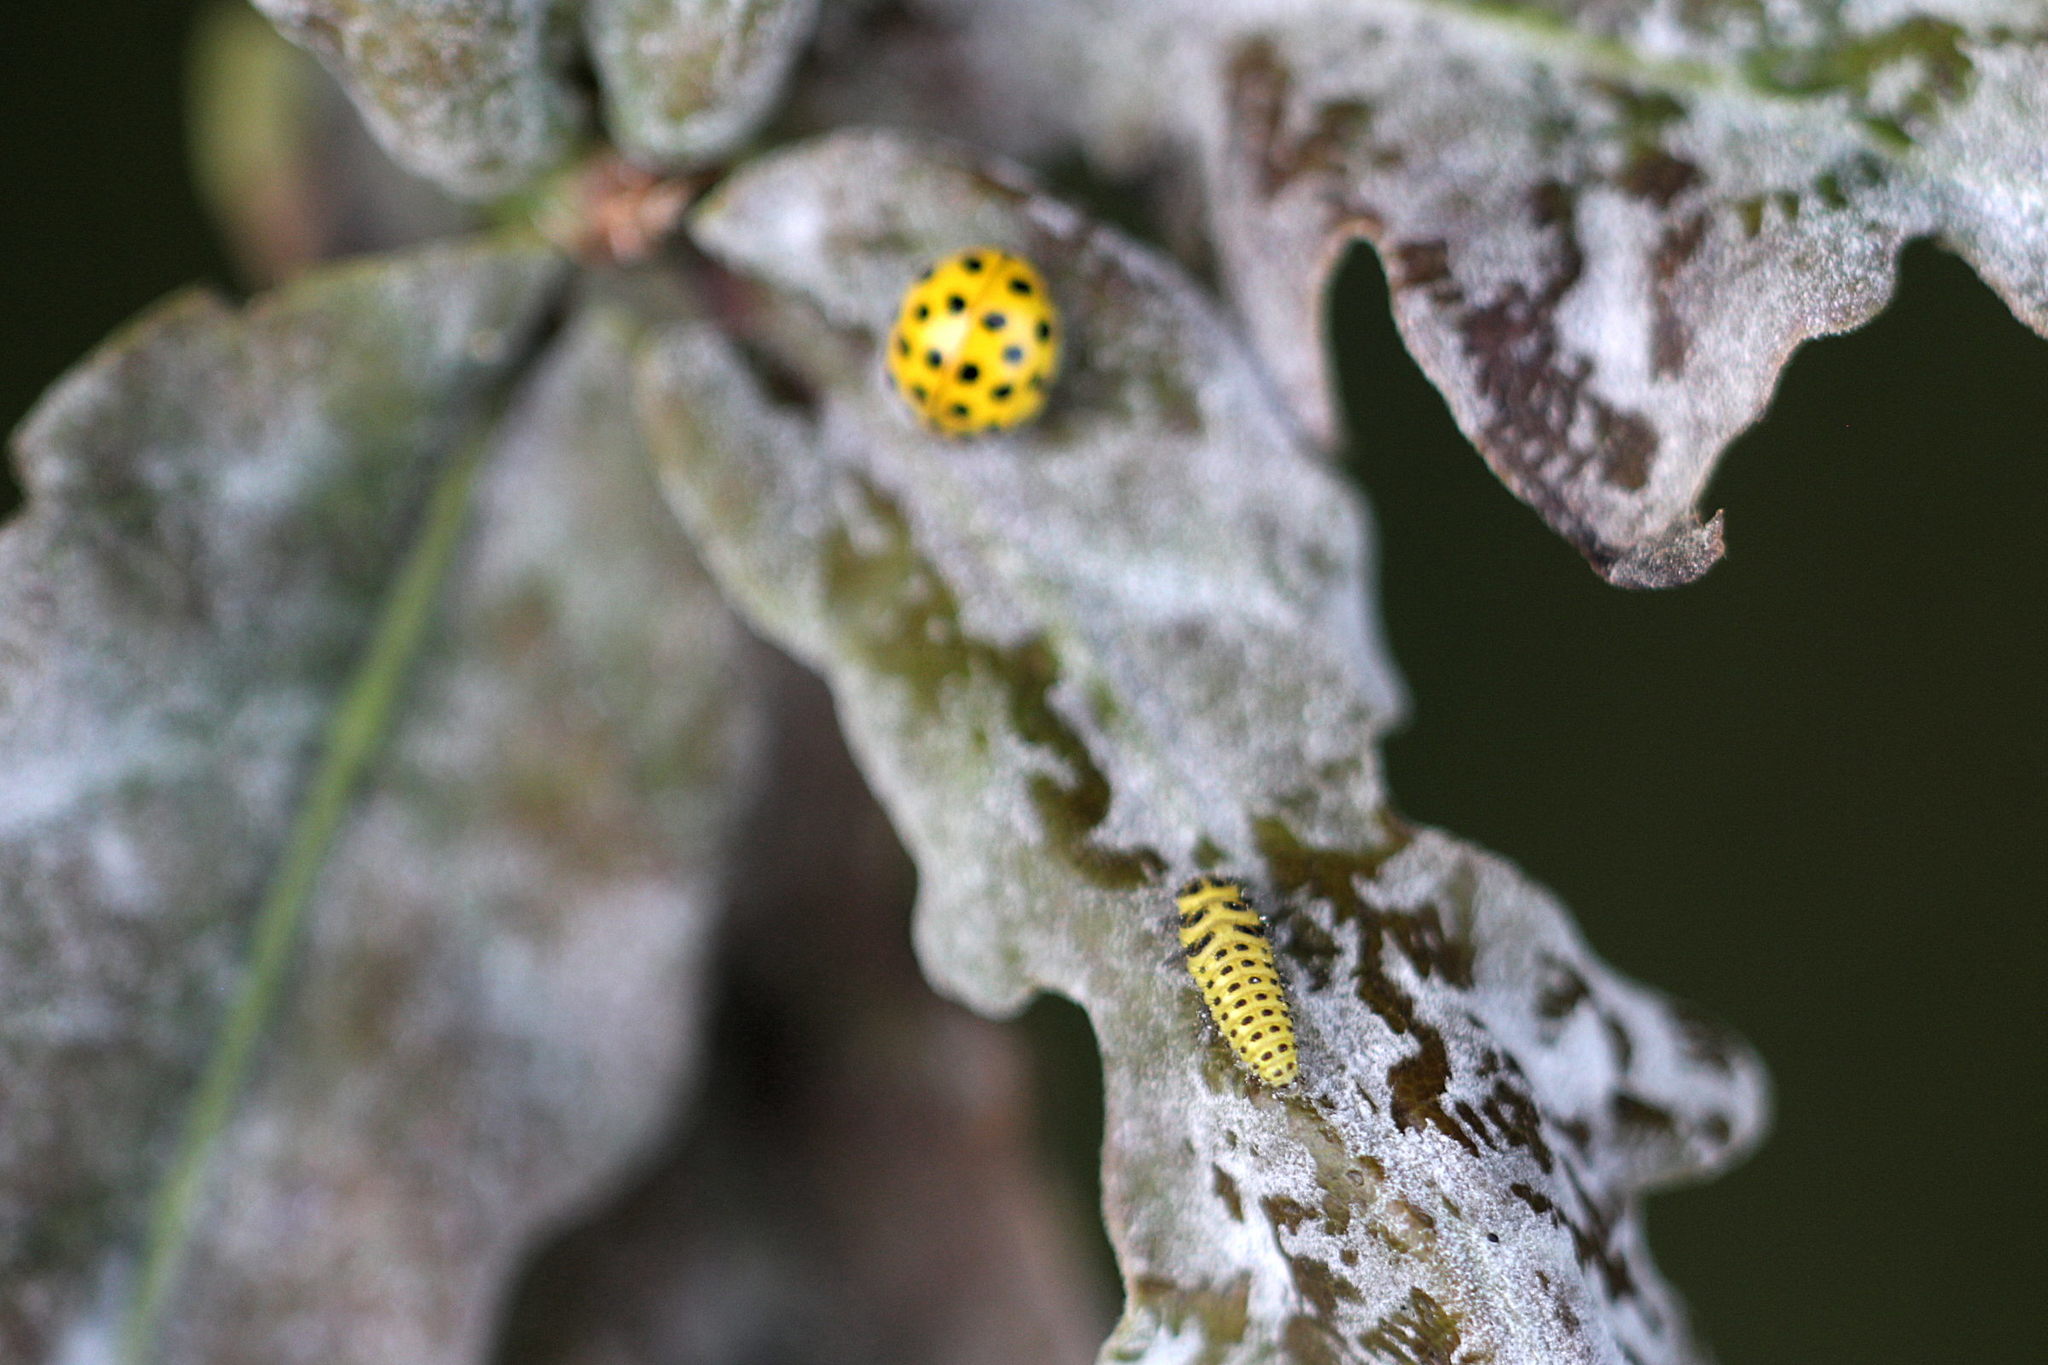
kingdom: Animalia
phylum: Arthropoda
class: Insecta
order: Coleoptera
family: Coccinellidae
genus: Psyllobora
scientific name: Psyllobora vigintiduopunctata
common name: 22-spot ladybird
